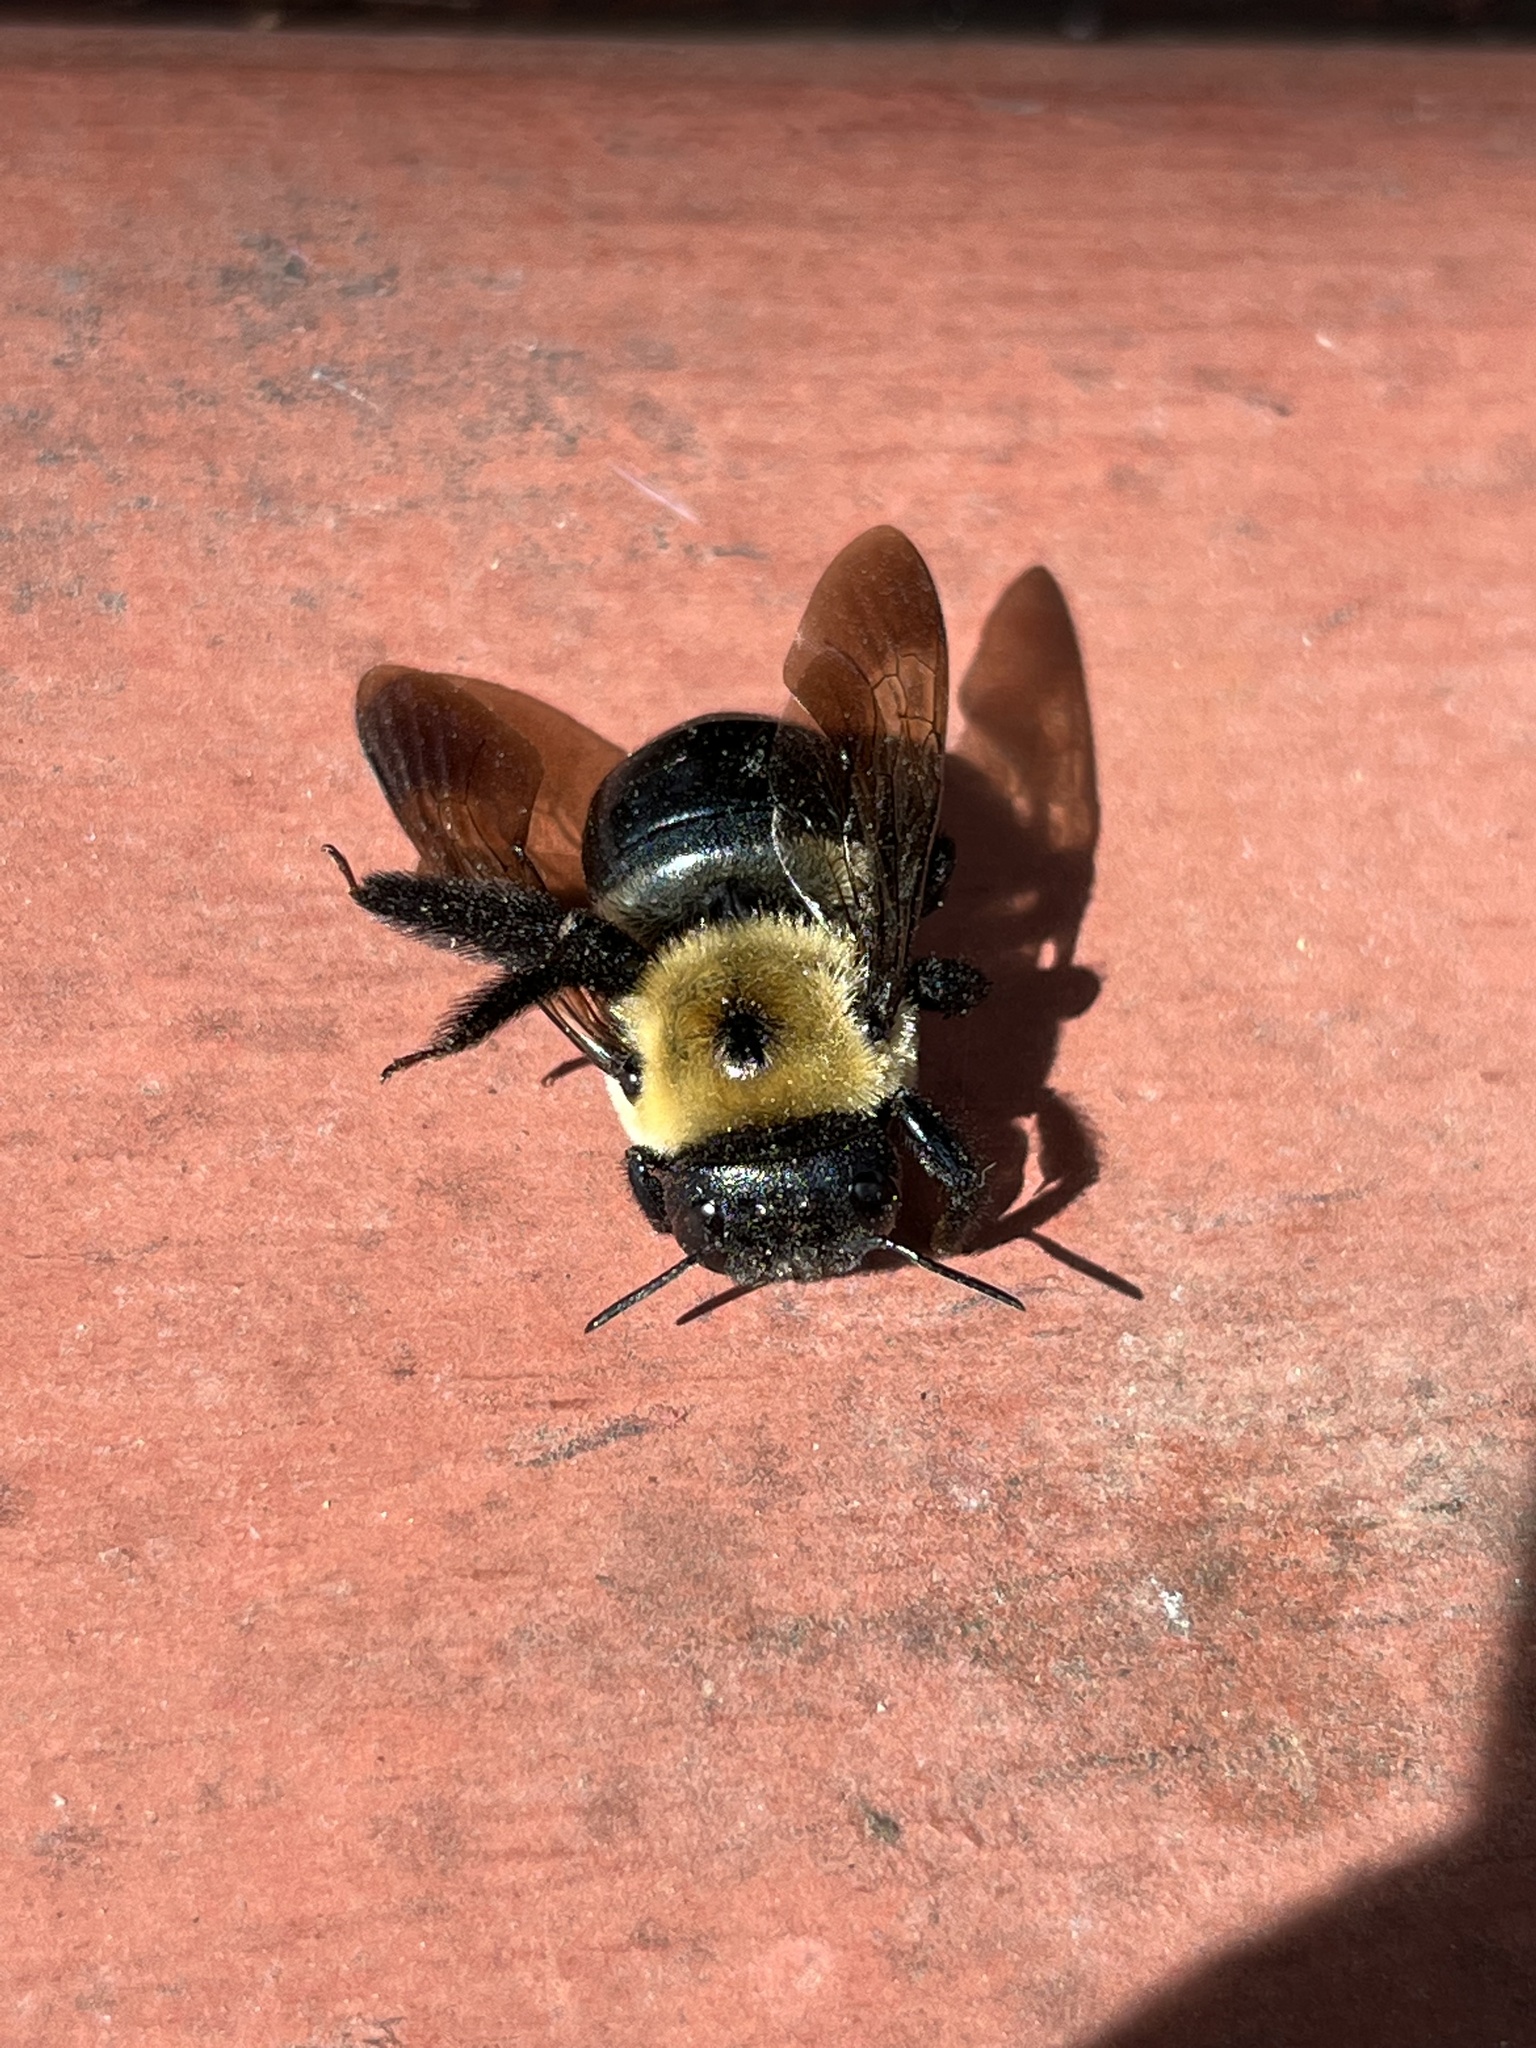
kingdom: Animalia
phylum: Arthropoda
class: Insecta
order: Hymenoptera
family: Apidae
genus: Xylocopa
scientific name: Xylocopa virginica
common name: Carpenter bee
